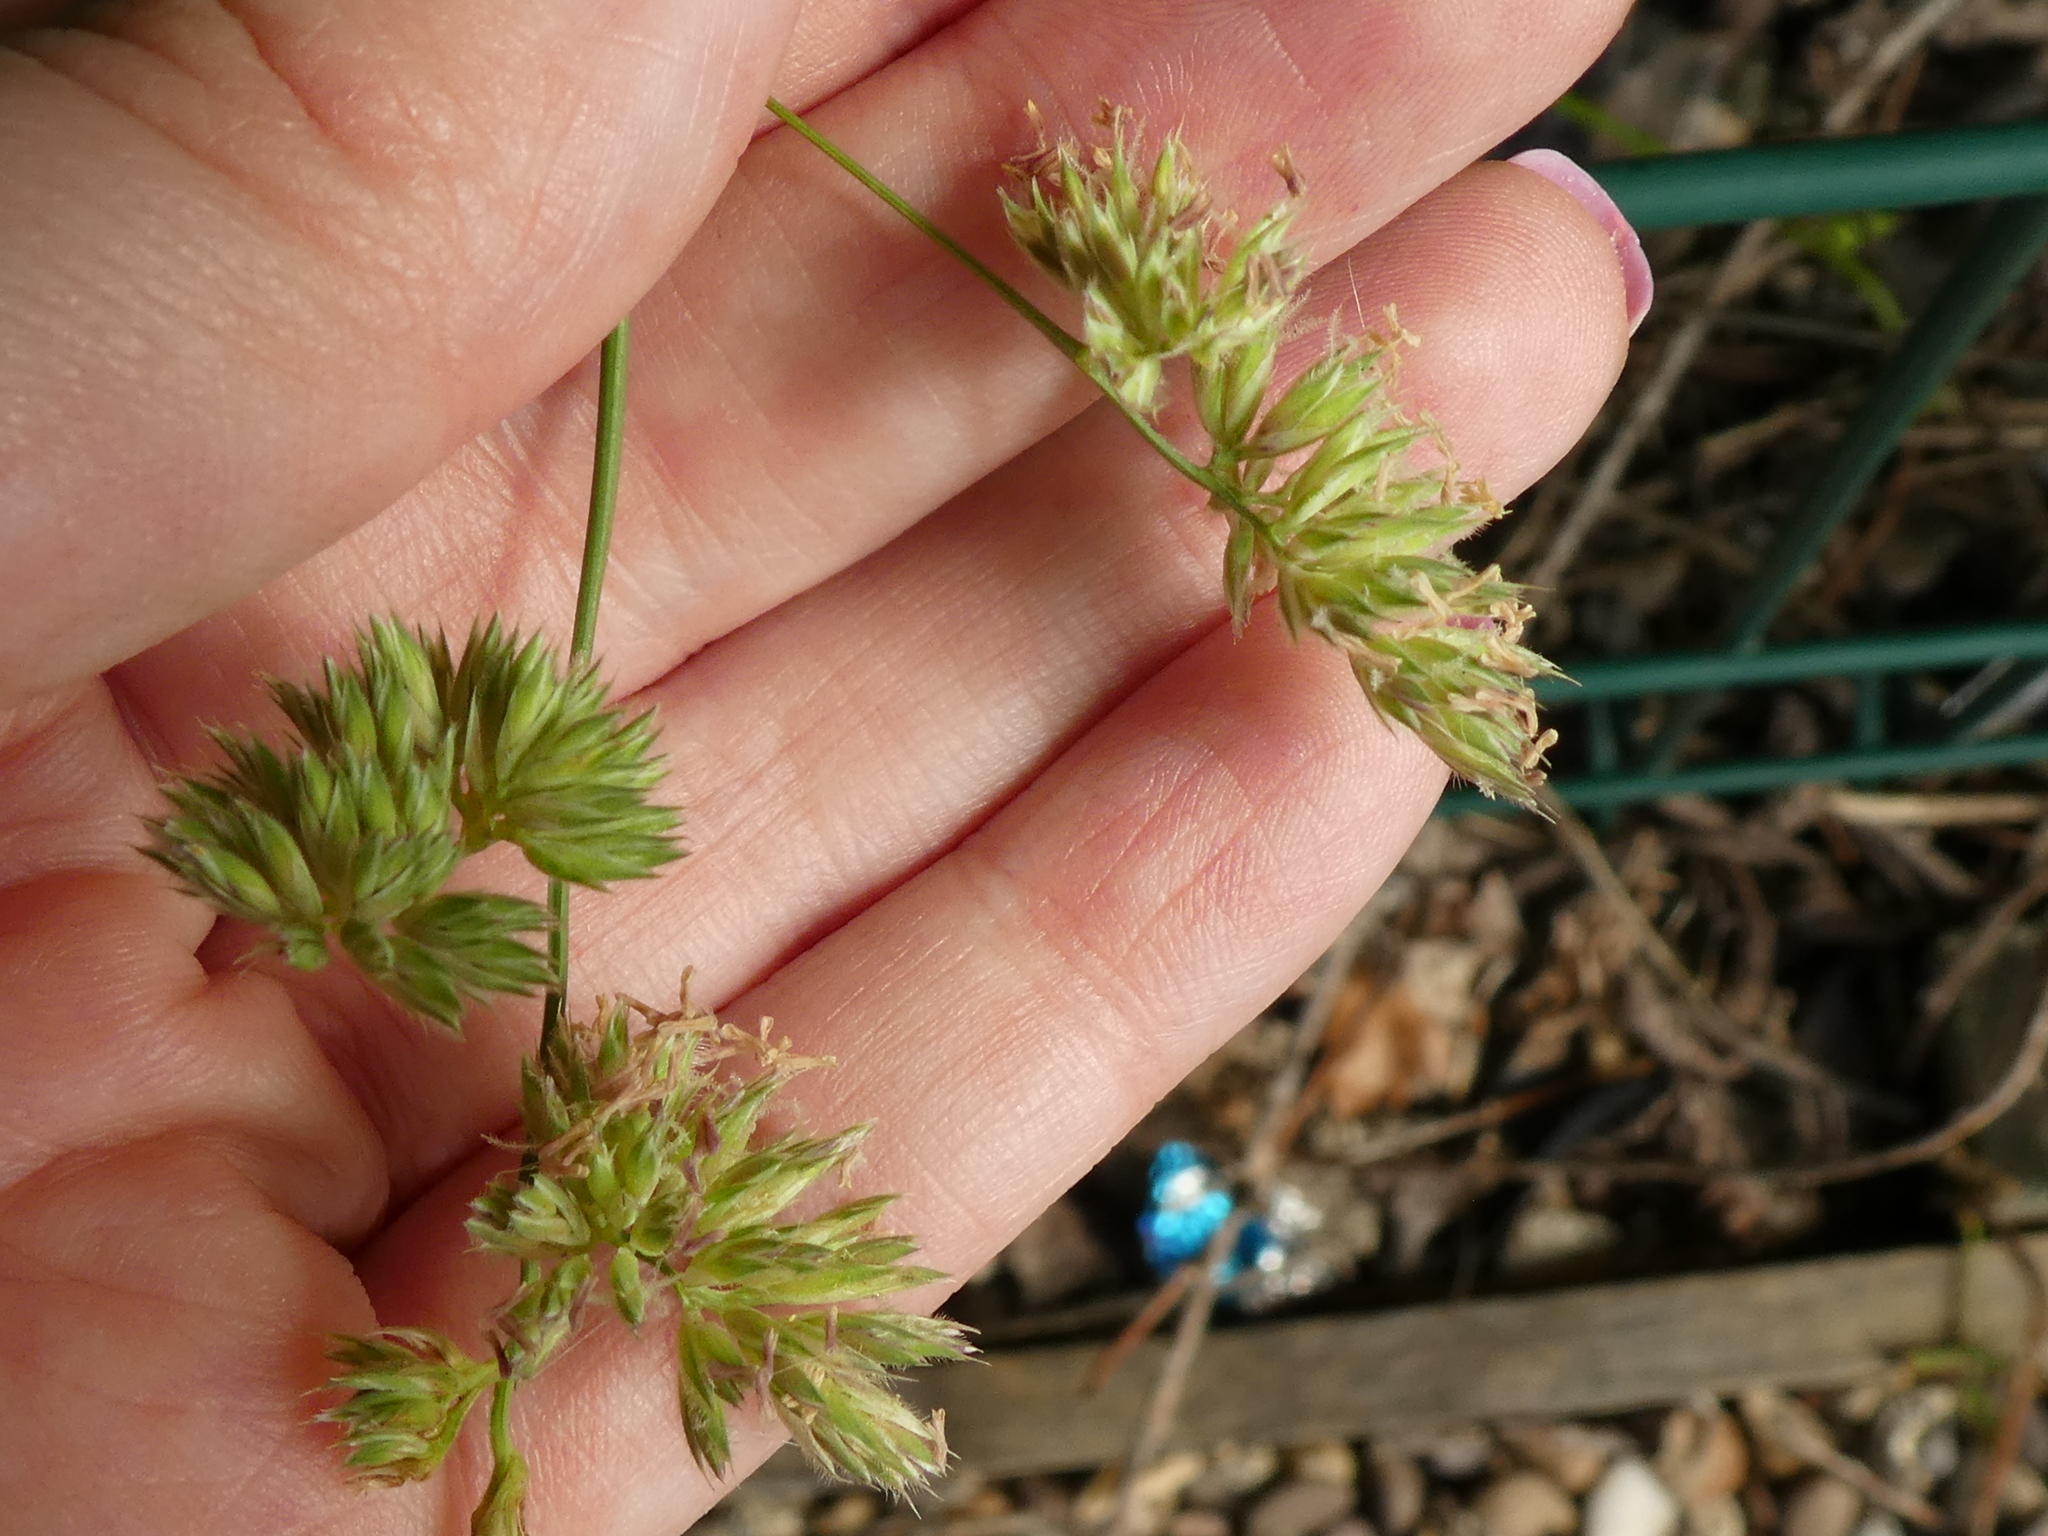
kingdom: Plantae
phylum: Tracheophyta
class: Liliopsida
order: Poales
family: Poaceae
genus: Dactylis
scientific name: Dactylis glomerata
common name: Orchardgrass
